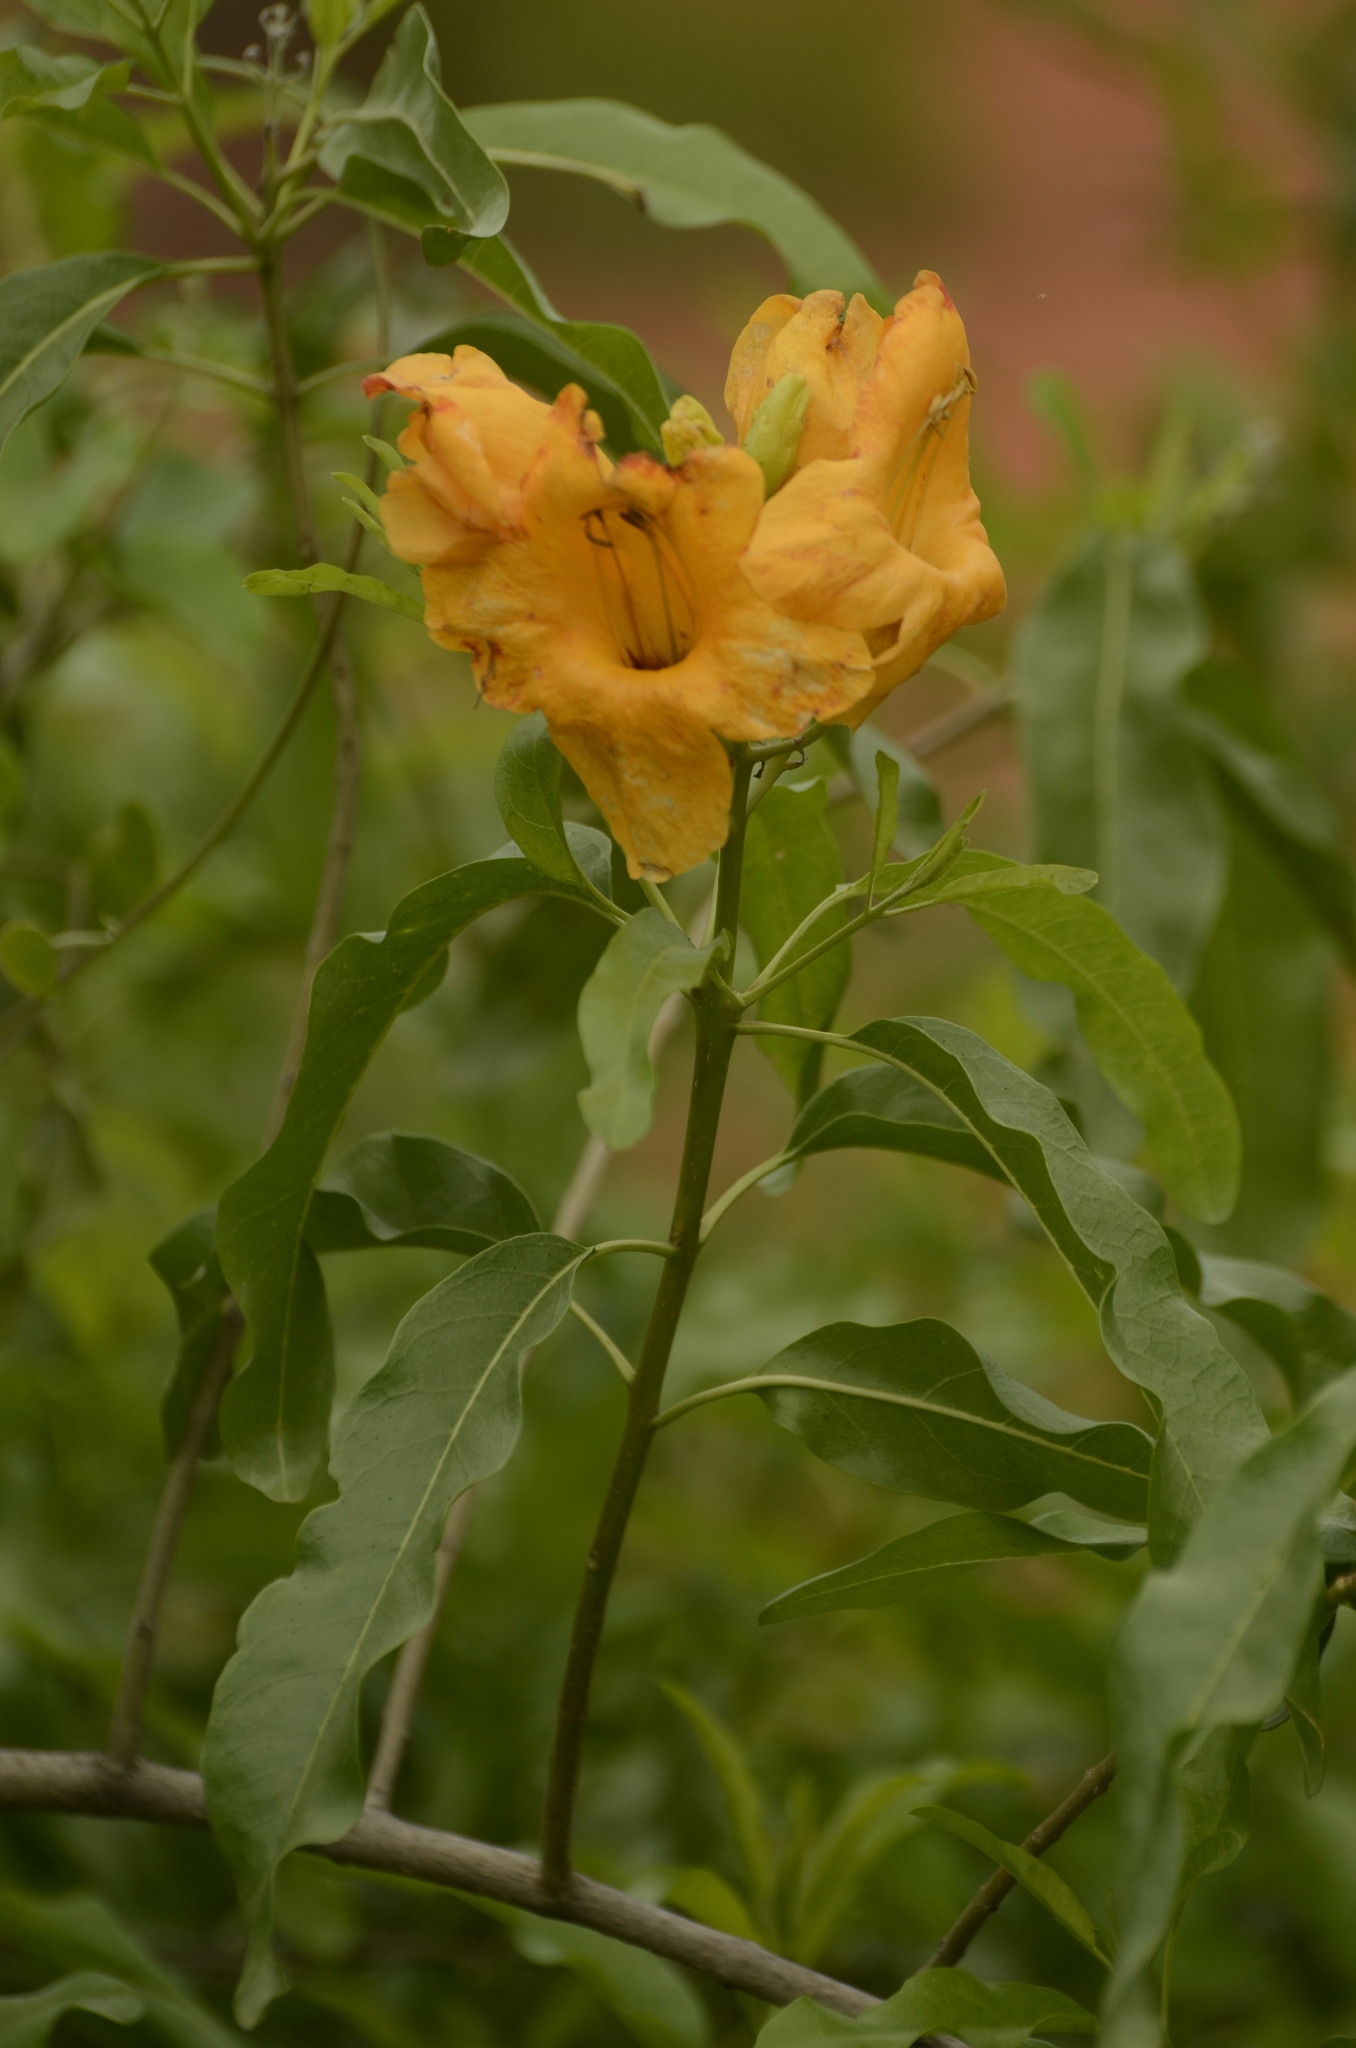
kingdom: Plantae
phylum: Tracheophyta
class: Magnoliopsida
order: Lamiales
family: Bignoniaceae
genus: Tecomella
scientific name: Tecomella undulata
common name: Desert teak
